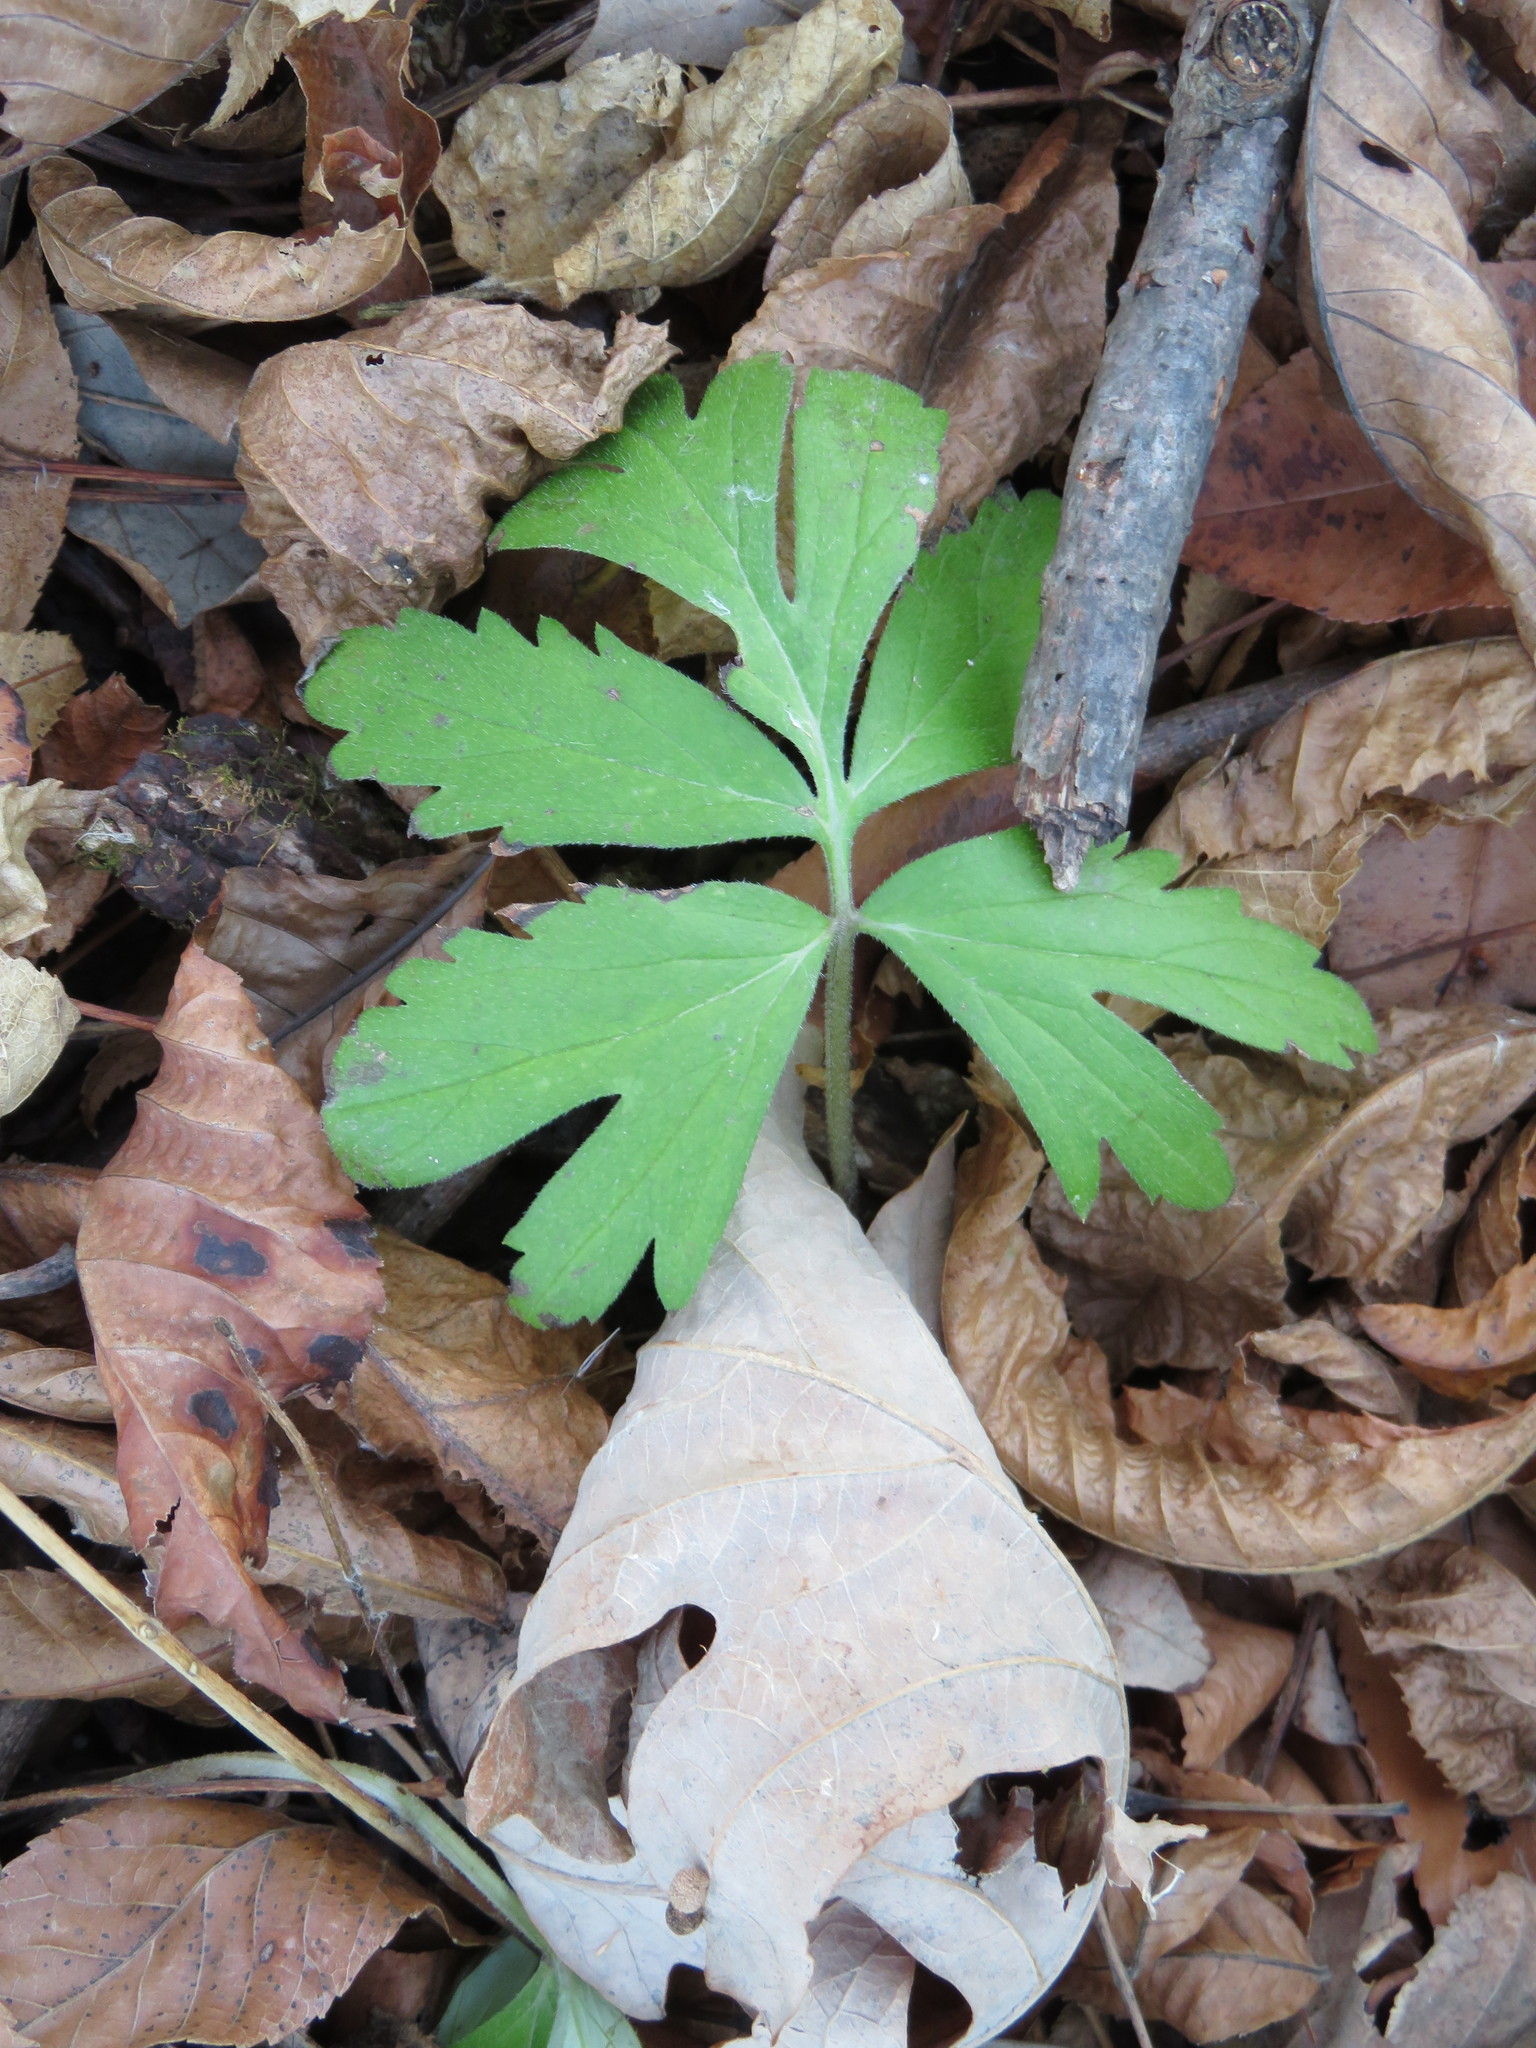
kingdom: Plantae
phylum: Tracheophyta
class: Magnoliopsida
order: Boraginales
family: Hydrophyllaceae
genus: Hydrophyllum
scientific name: Hydrophyllum virginianum
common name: Virginia waterleaf
